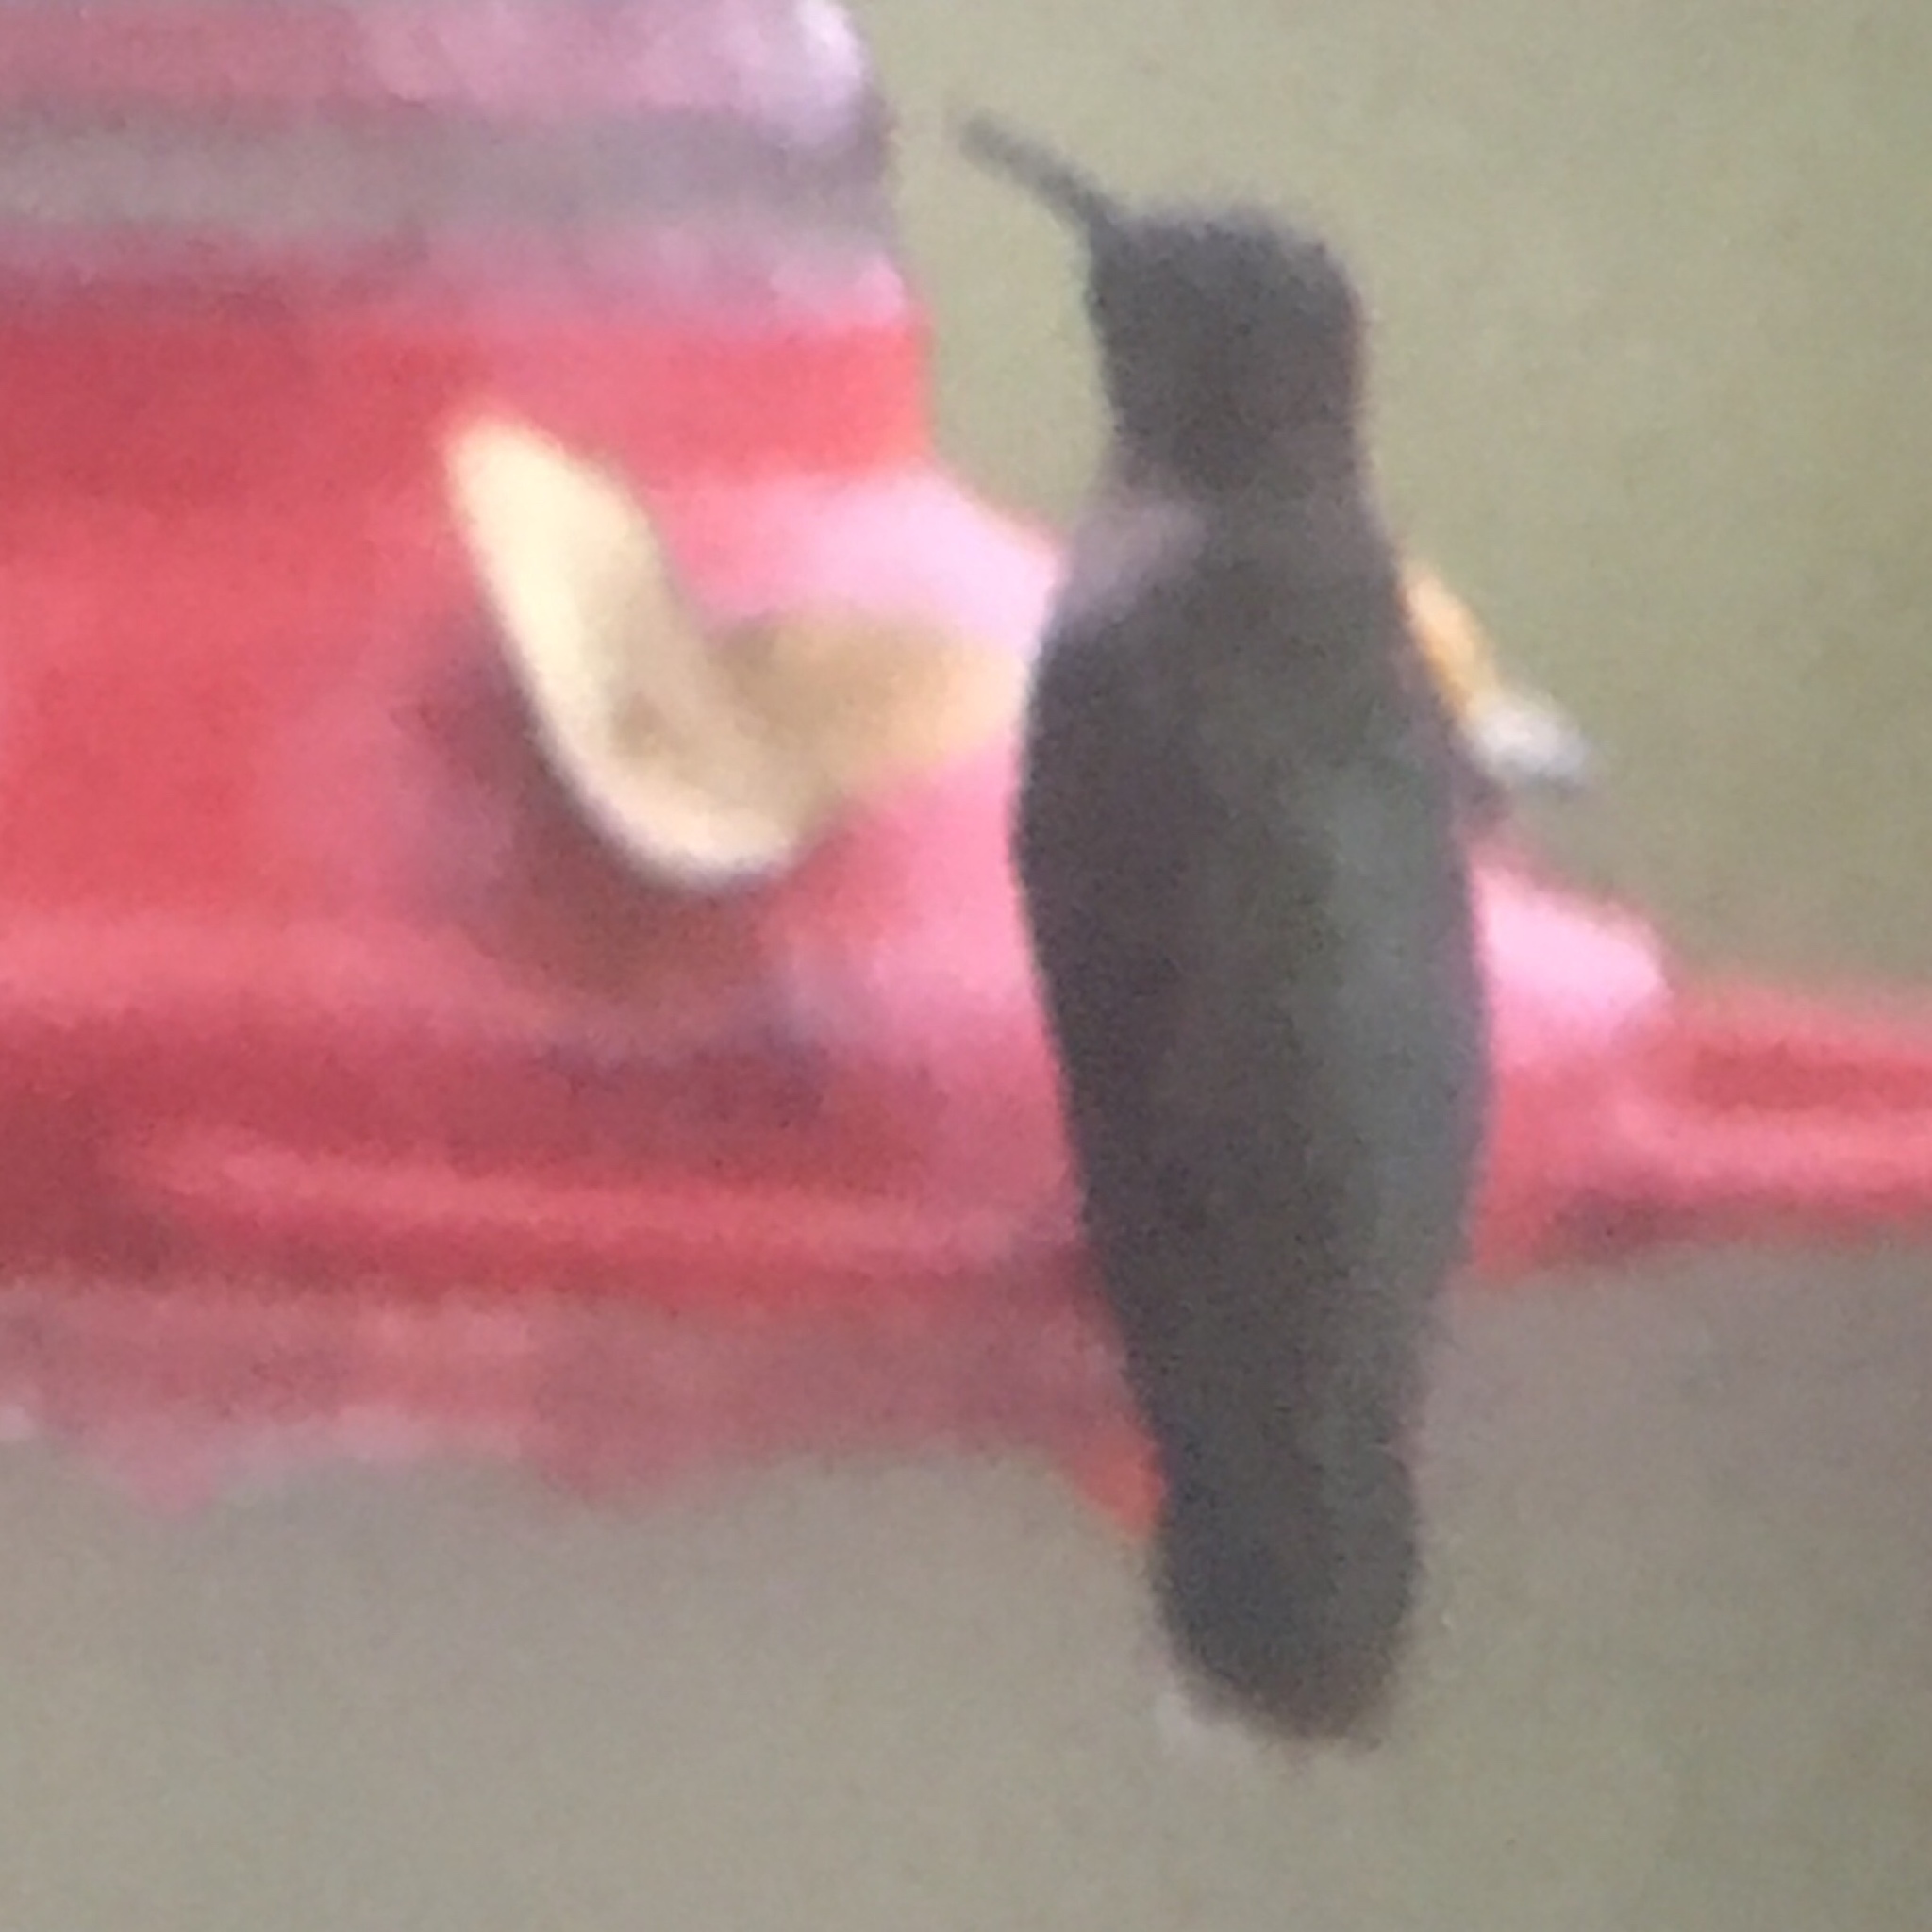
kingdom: Animalia
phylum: Chordata
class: Aves
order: Apodiformes
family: Trochilidae
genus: Archilochus
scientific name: Archilochus colubris
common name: Ruby-throated hummingbird
